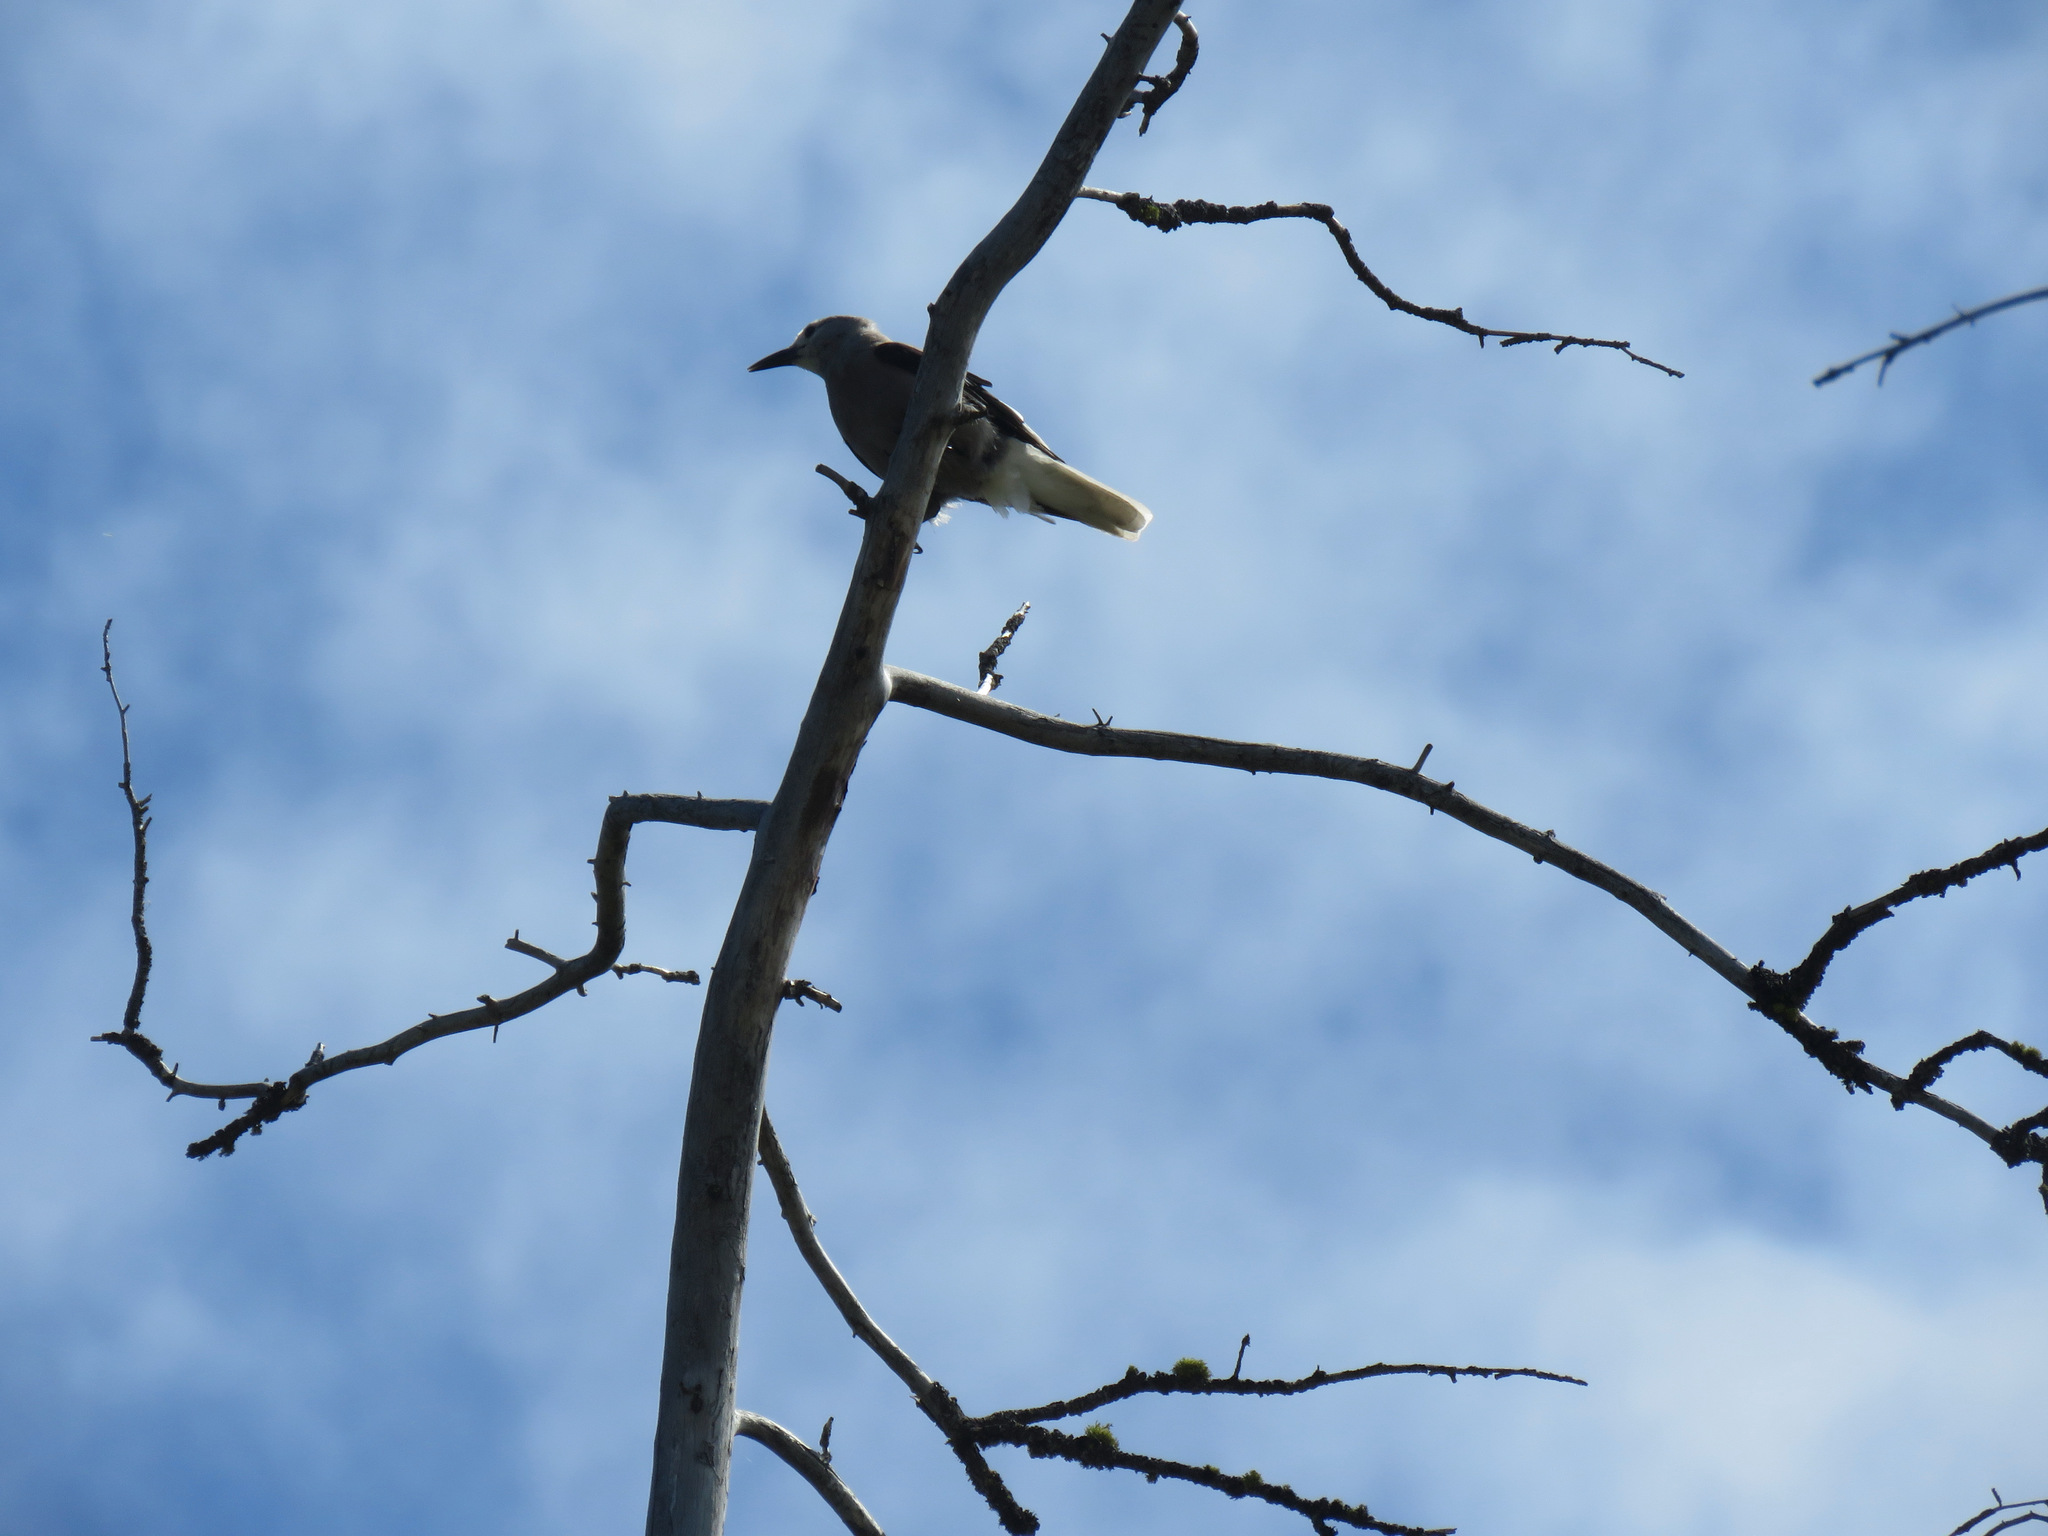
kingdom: Animalia
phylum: Chordata
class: Aves
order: Passeriformes
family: Corvidae
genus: Nucifraga
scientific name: Nucifraga columbiana
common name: Clark's nutcracker
